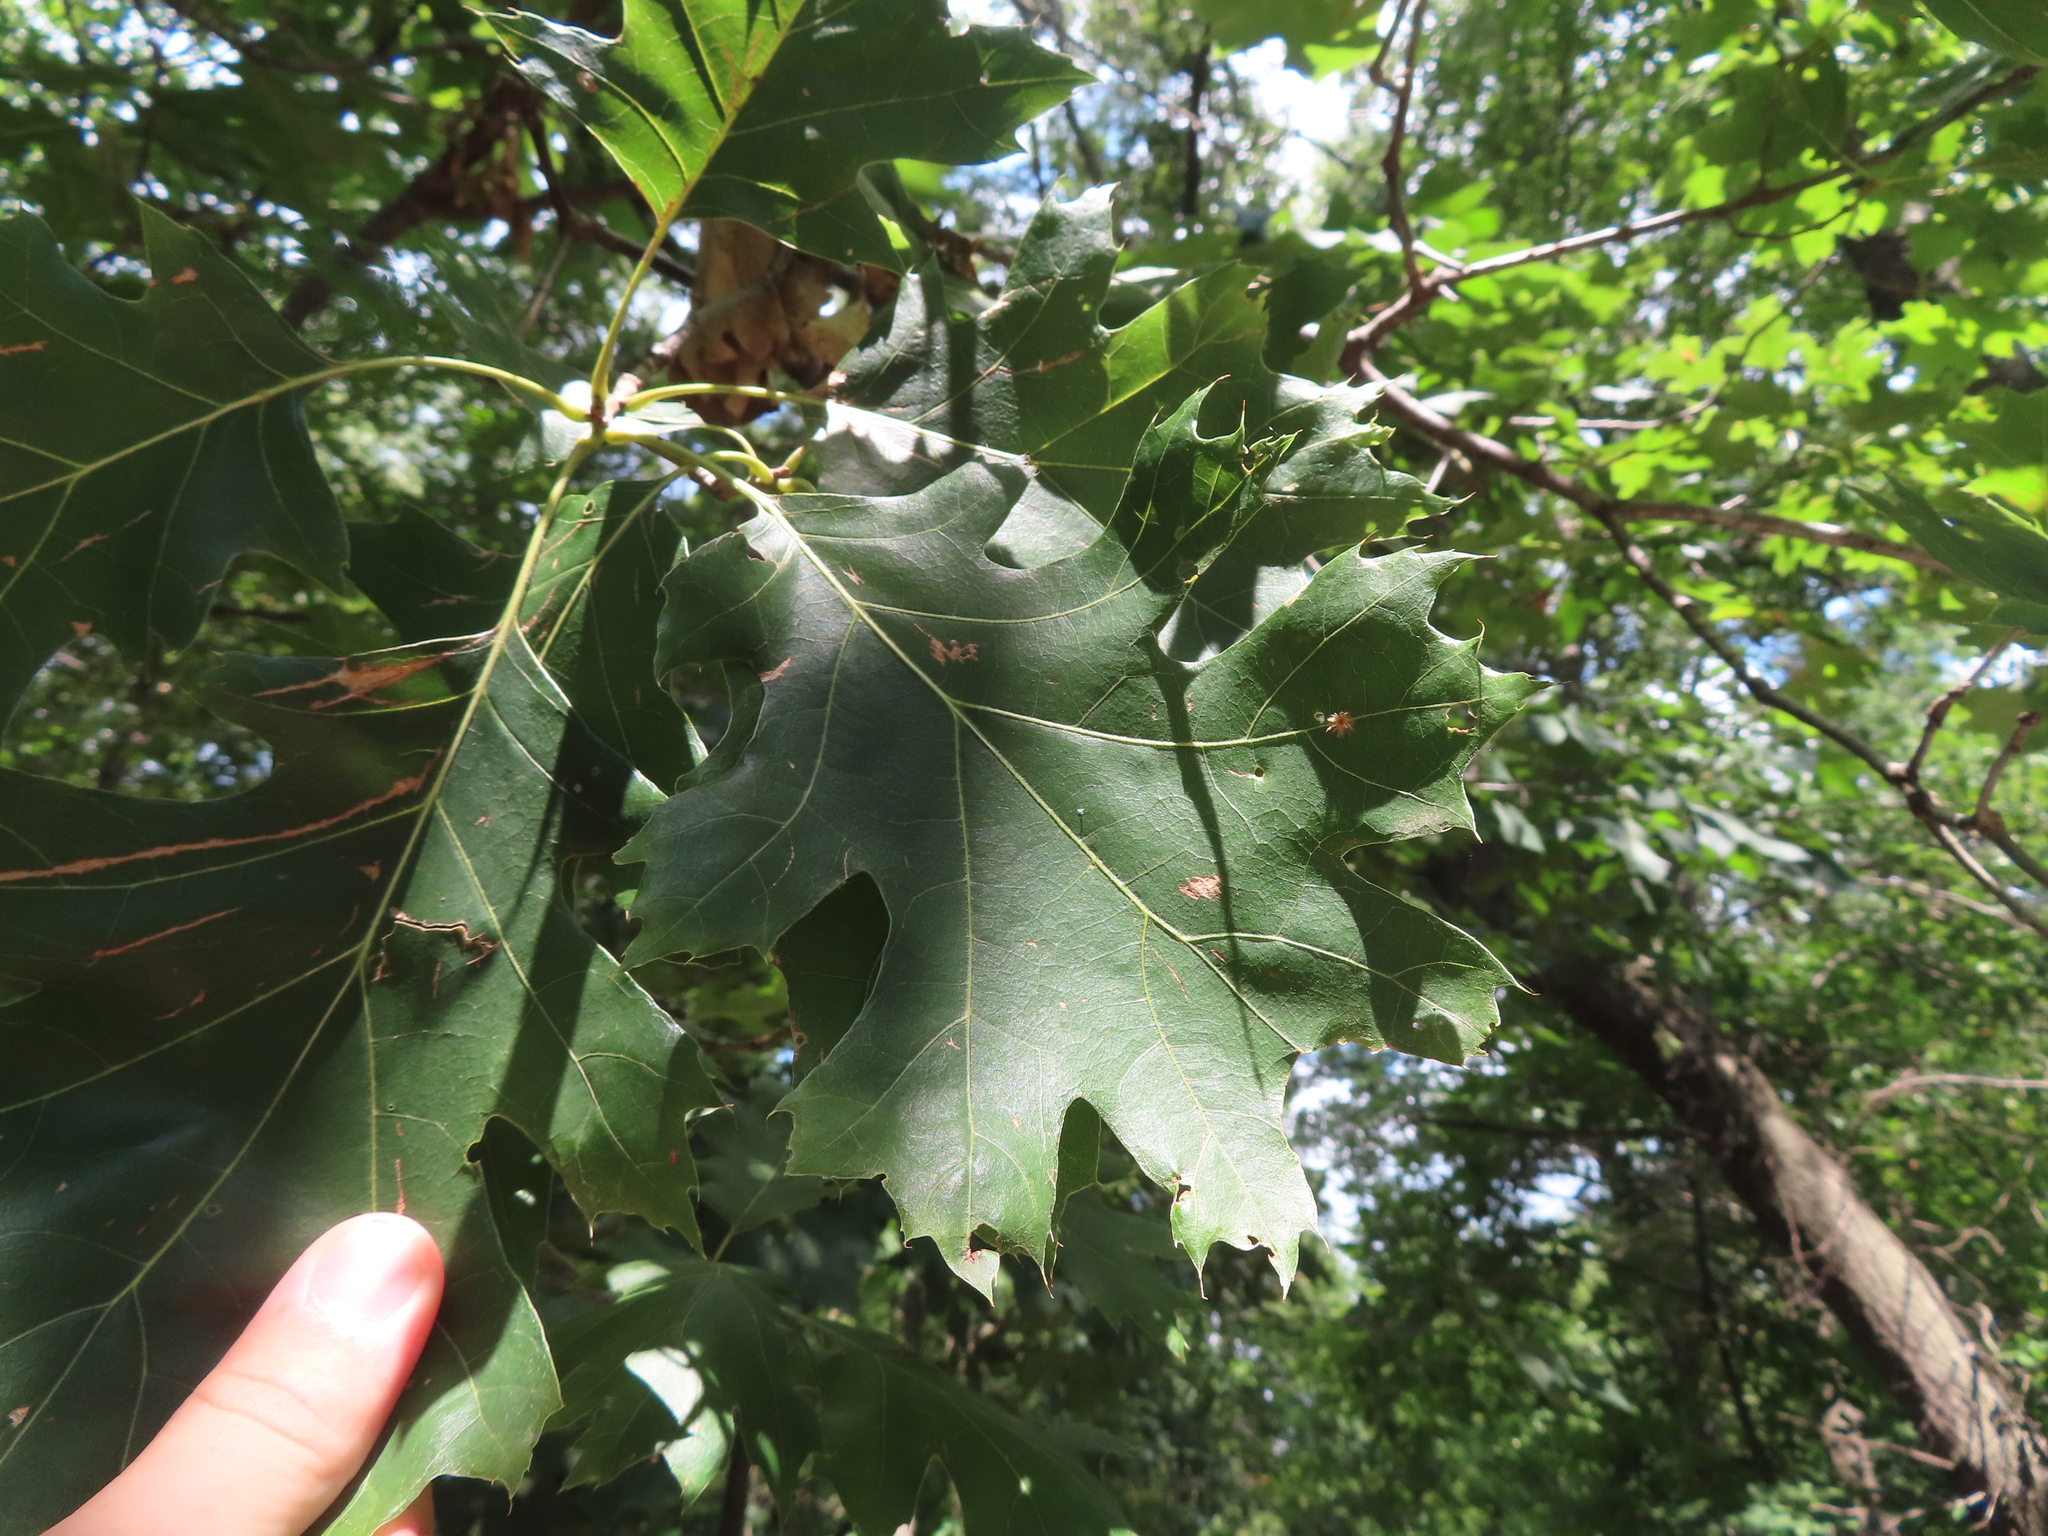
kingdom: Plantae
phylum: Tracheophyta
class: Magnoliopsida
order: Fagales
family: Fagaceae
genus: Quercus
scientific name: Quercus velutina
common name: Black oak
